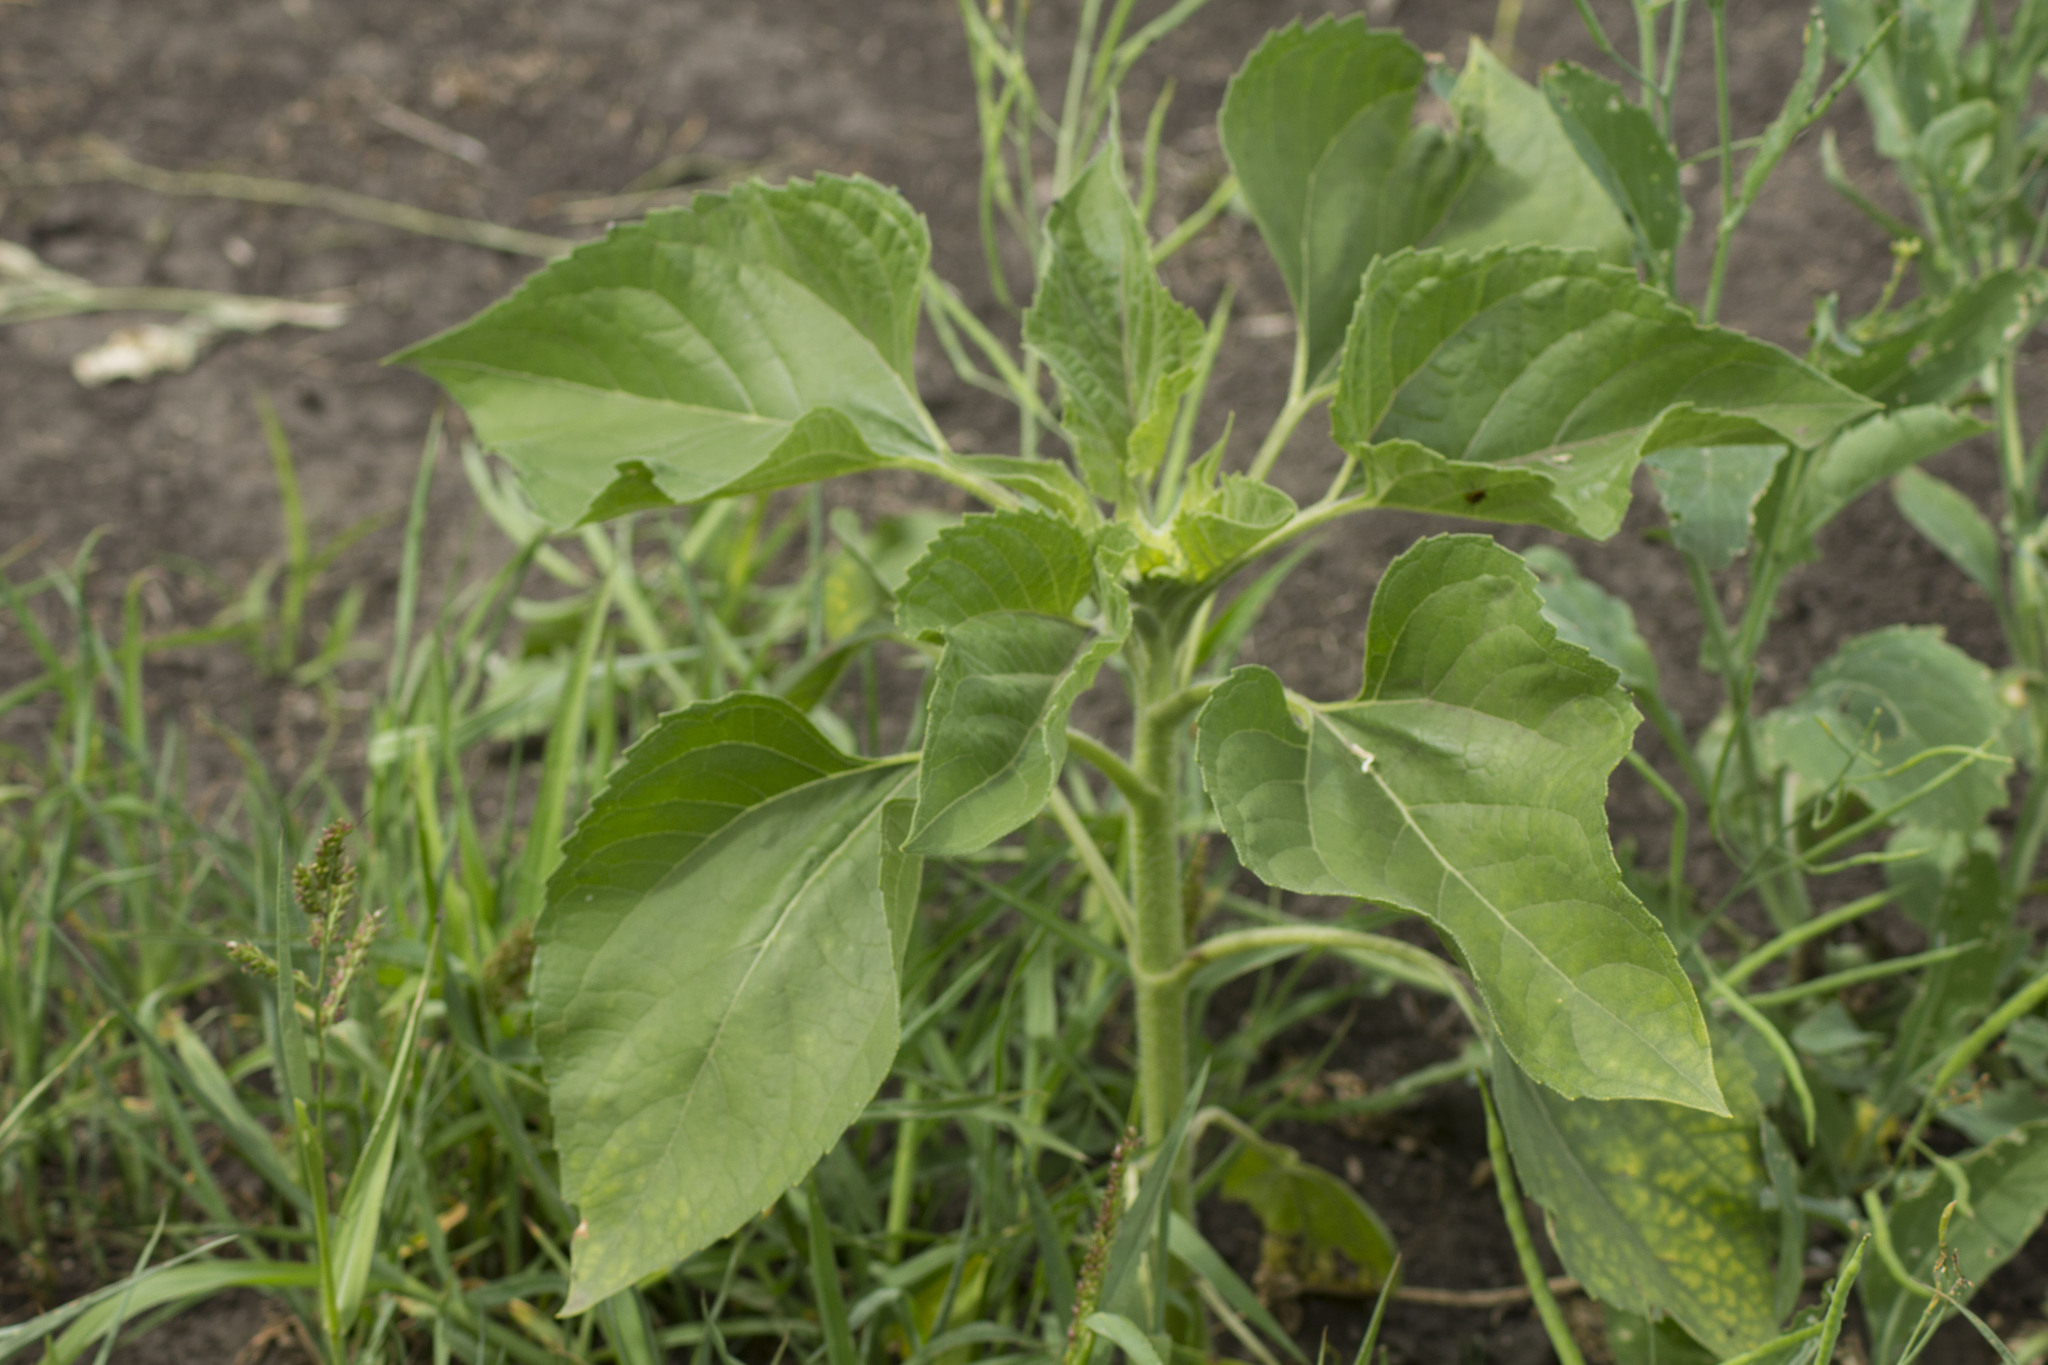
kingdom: Plantae
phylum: Tracheophyta
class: Magnoliopsida
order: Asterales
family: Asteraceae
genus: Helianthus
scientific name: Helianthus annuus
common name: Sunflower
